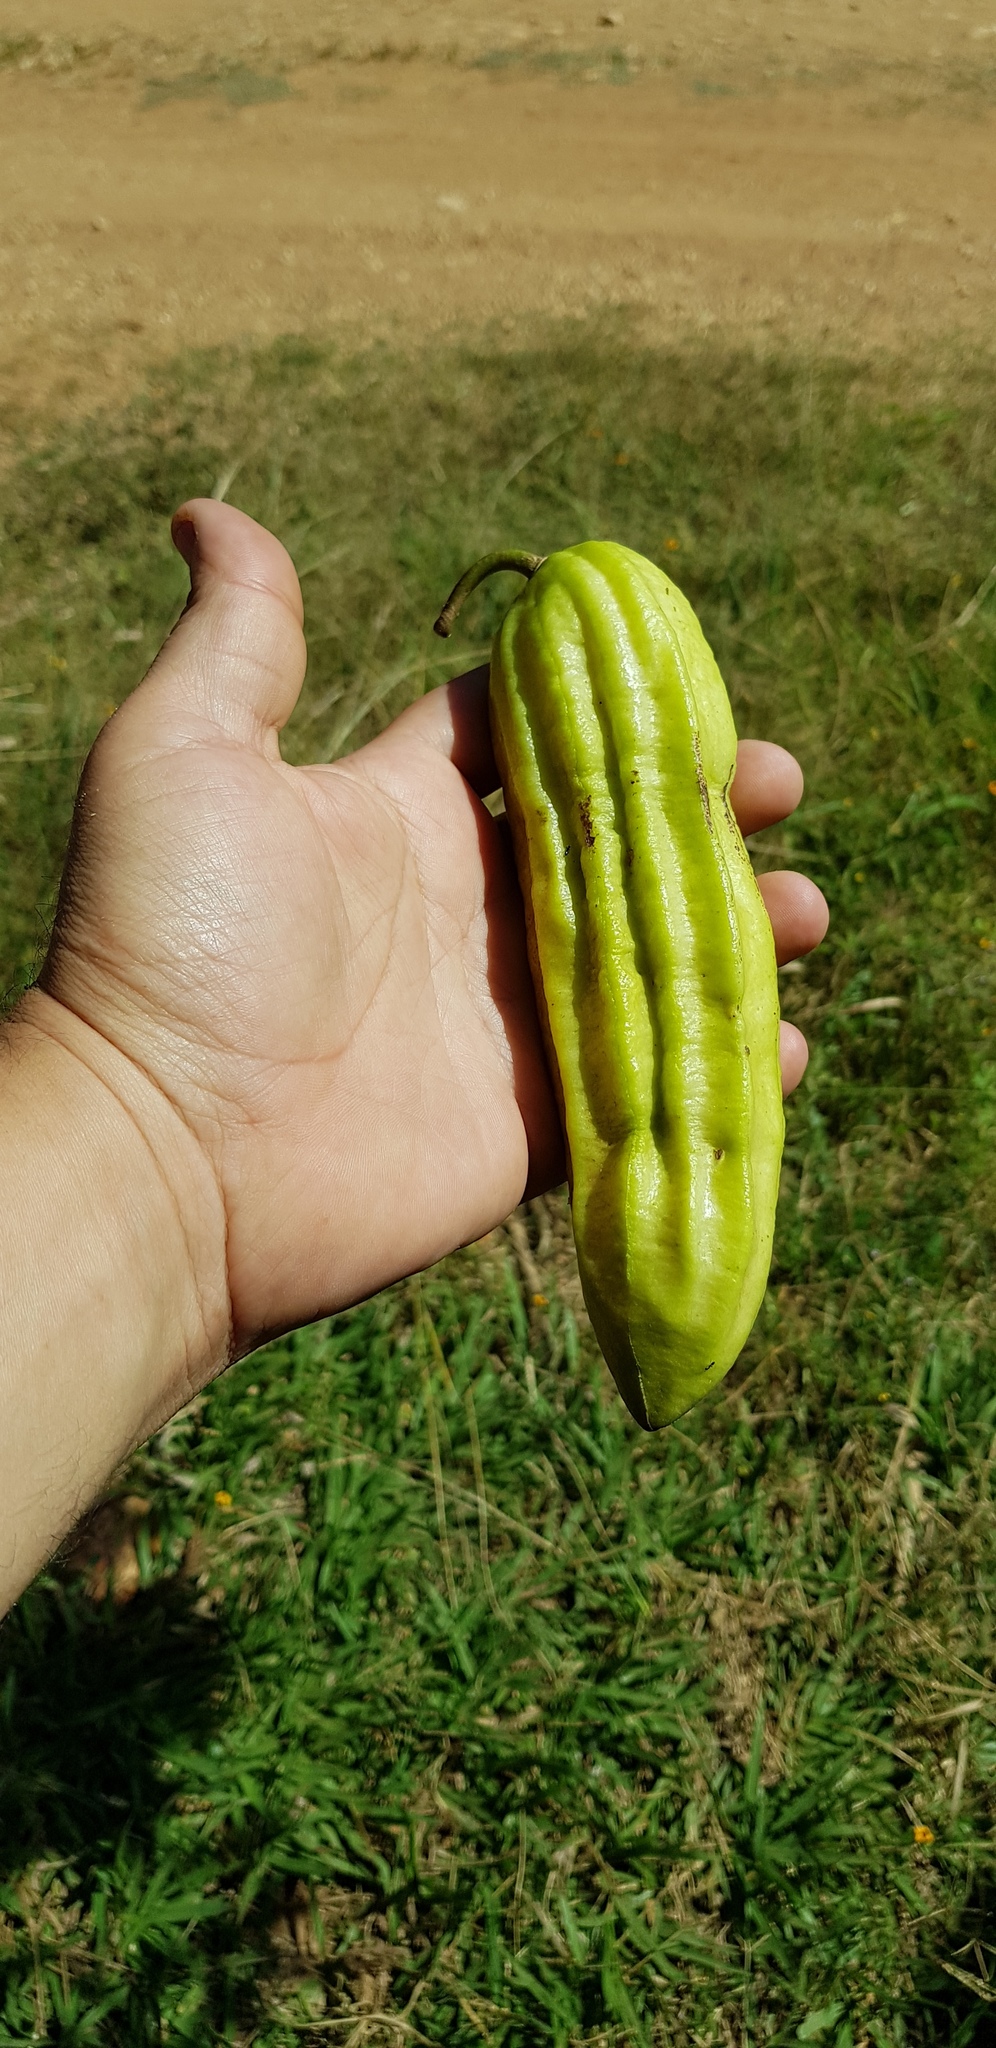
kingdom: Plantae
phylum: Tracheophyta
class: Magnoliopsida
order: Lamiales
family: Bignoniaceae
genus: Parmentiera
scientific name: Parmentiera aculeata
